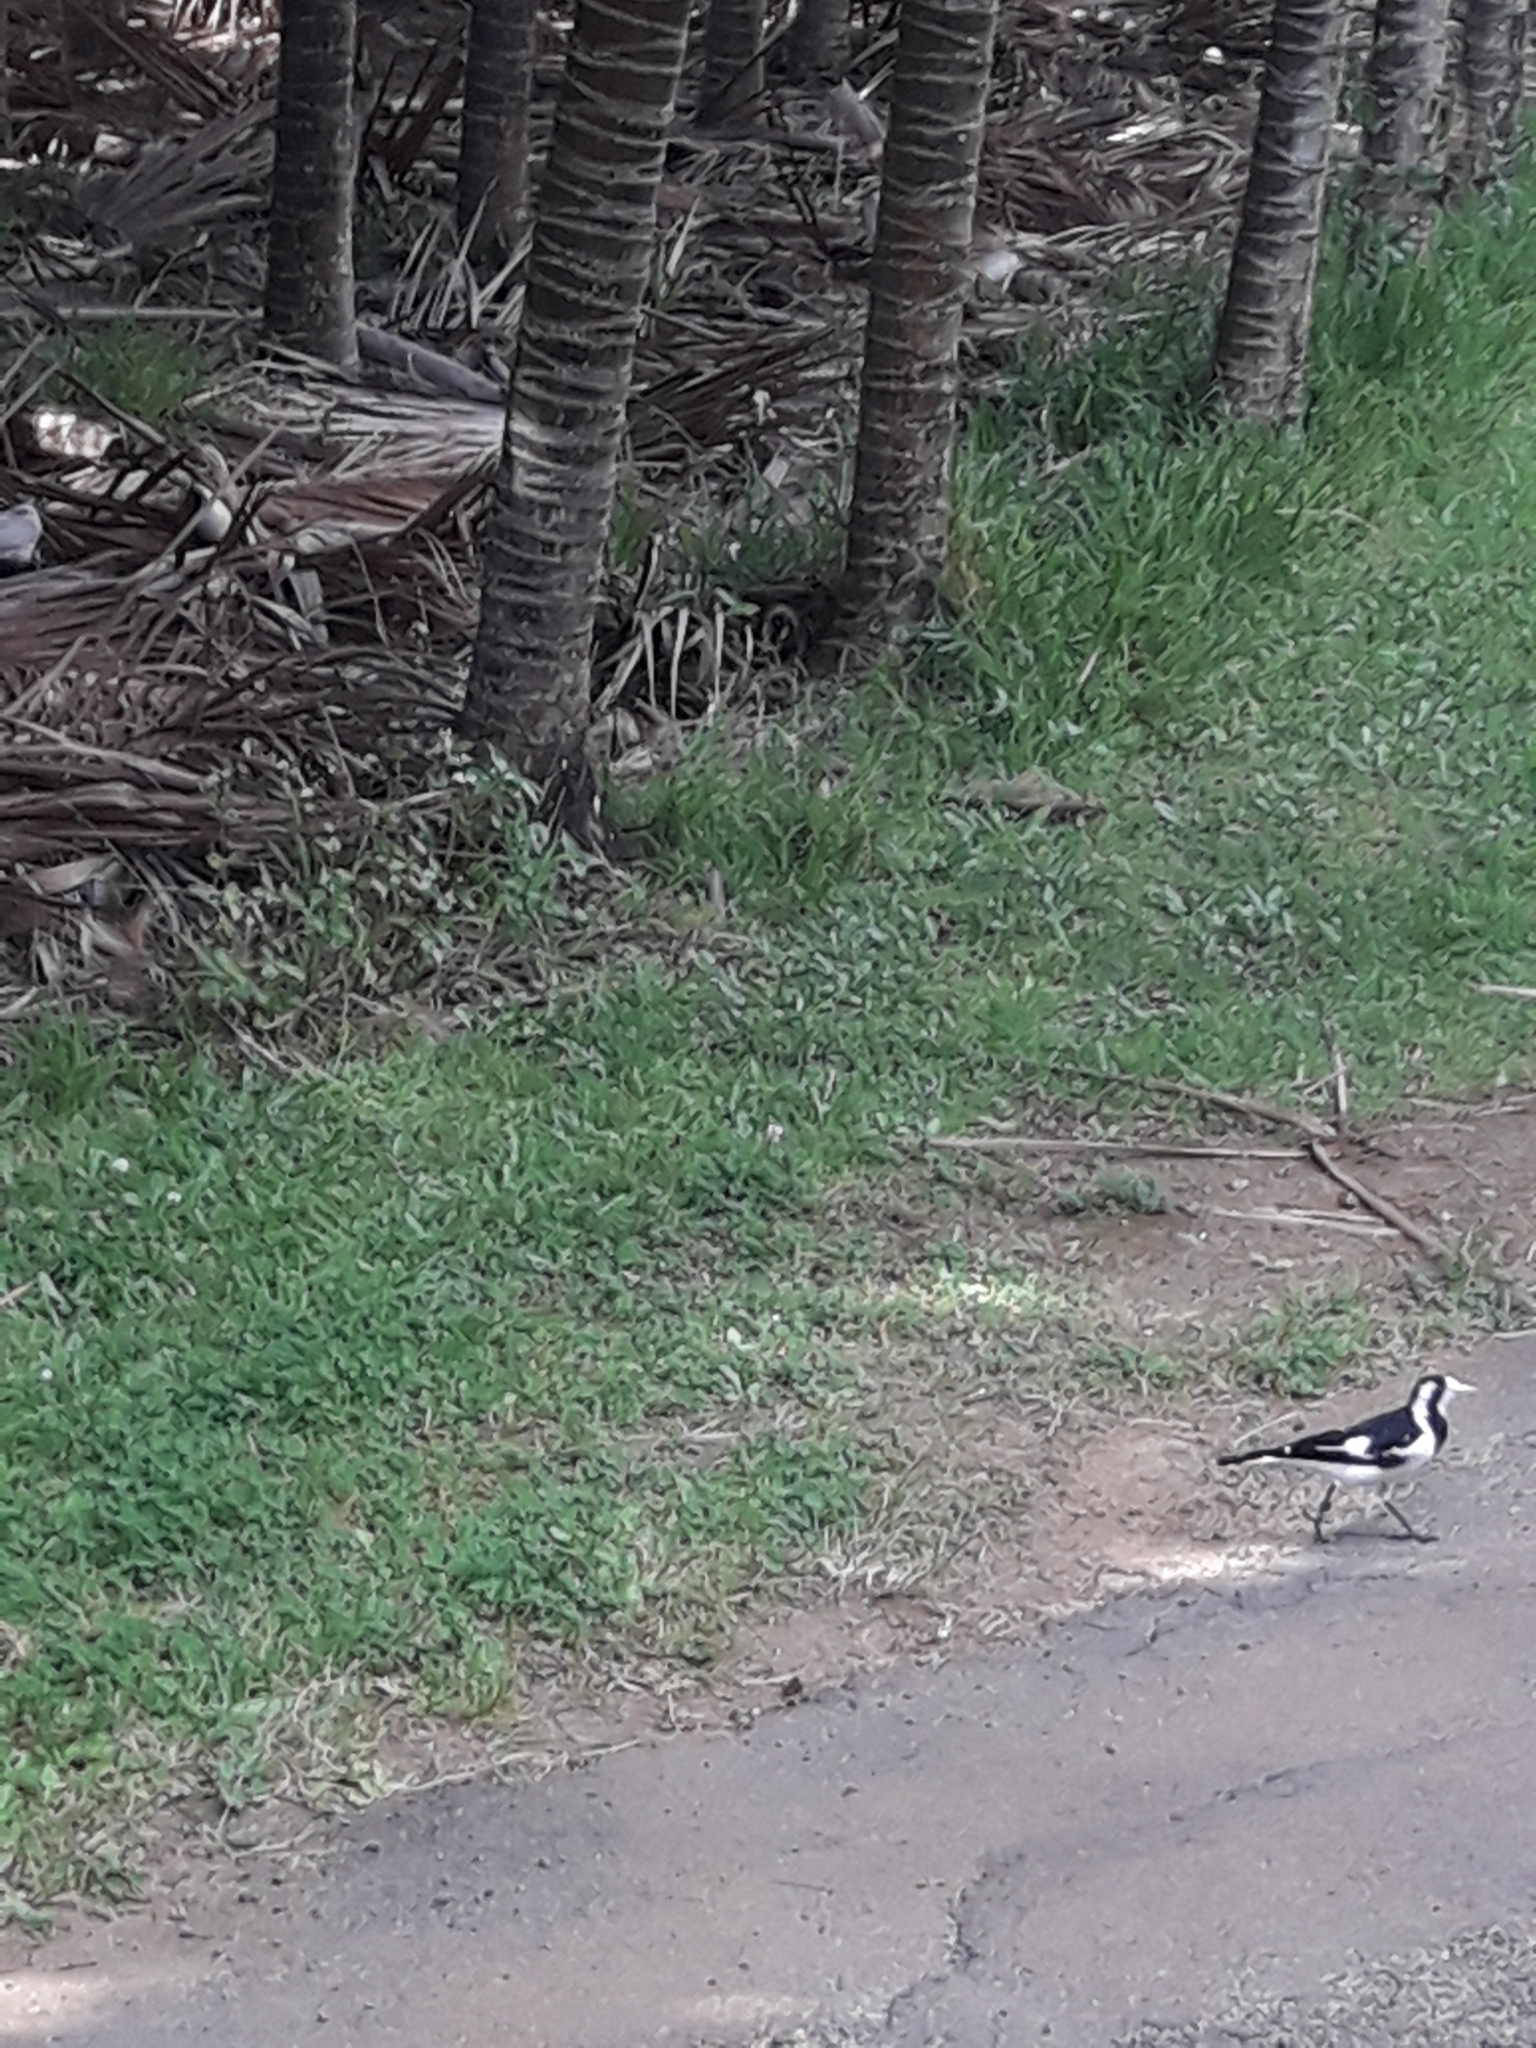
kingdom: Animalia
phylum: Chordata
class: Aves
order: Passeriformes
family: Monarchidae
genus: Grallina
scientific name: Grallina cyanoleuca
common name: Magpie-lark
